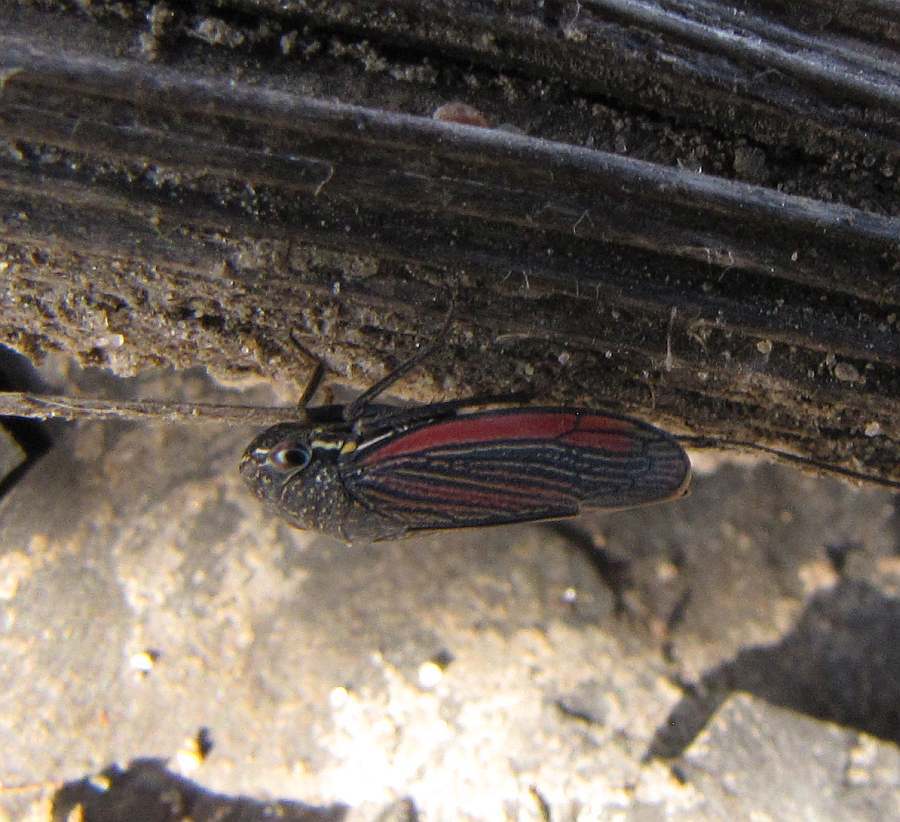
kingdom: Animalia
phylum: Arthropoda
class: Insecta
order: Hemiptera
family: Cicadellidae
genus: Cuerna
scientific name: Cuerna striata
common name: Striped leafhopper
